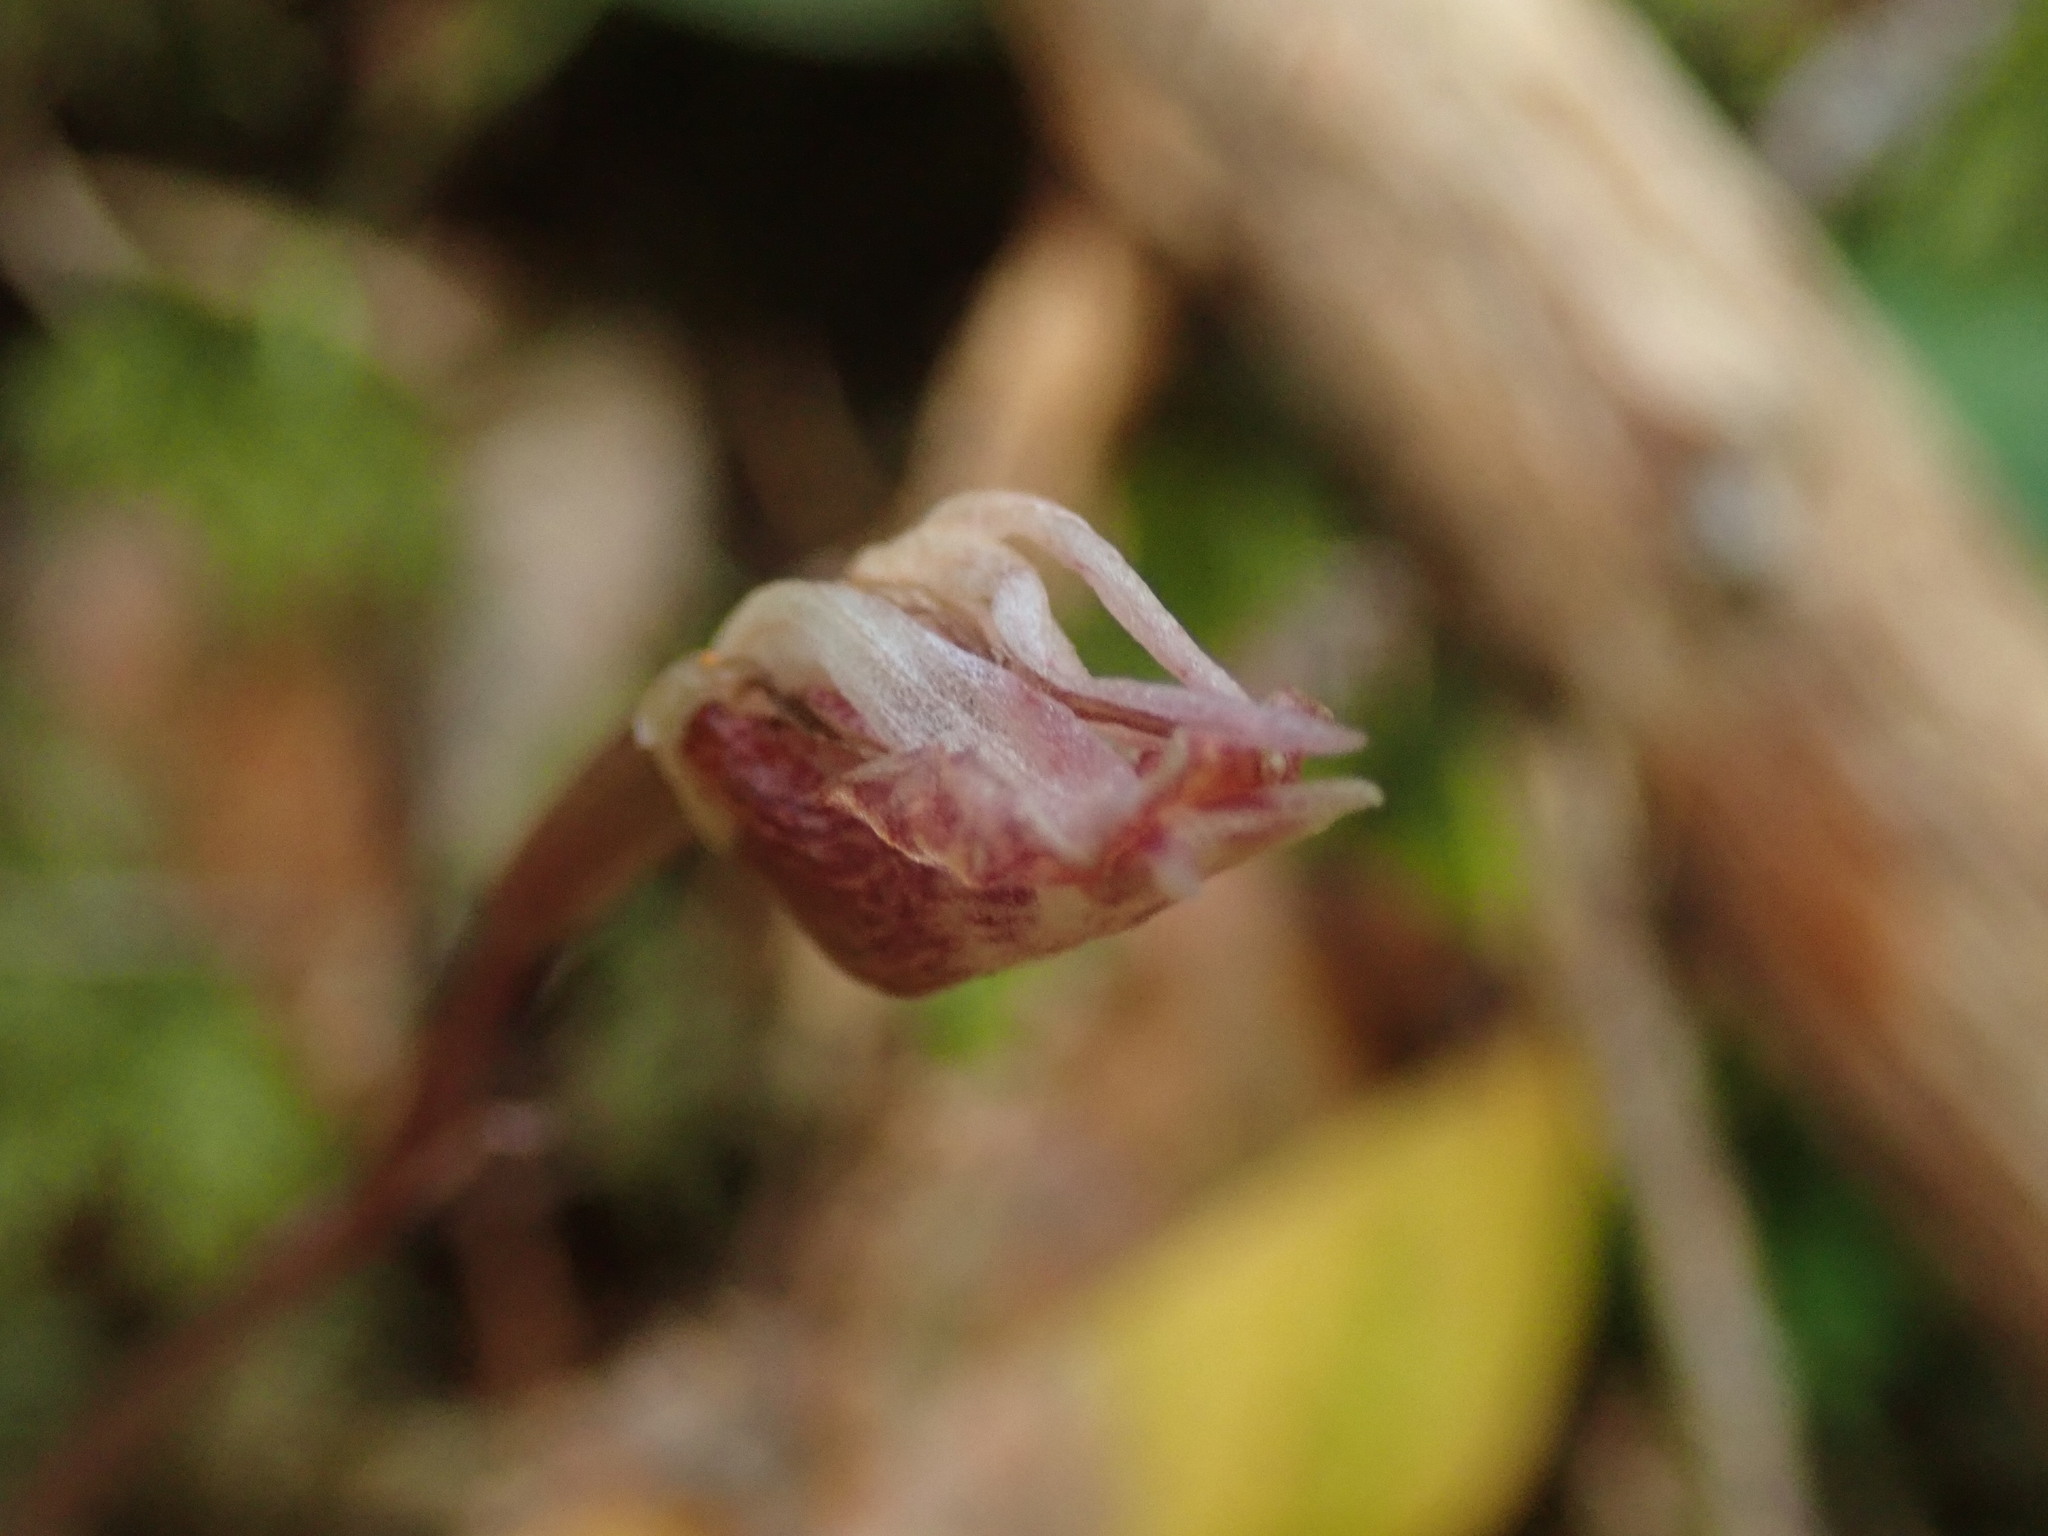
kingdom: Plantae
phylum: Tracheophyta
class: Liliopsida
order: Asparagales
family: Orchidaceae
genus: Calypso
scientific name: Calypso bulbosa
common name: Calypso
